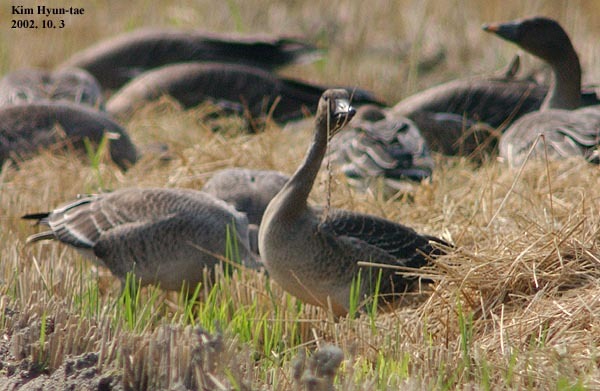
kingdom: Animalia
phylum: Chordata
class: Aves
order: Anseriformes
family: Anatidae
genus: Anser
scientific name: Anser serrirostris
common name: Tundra bean goose
